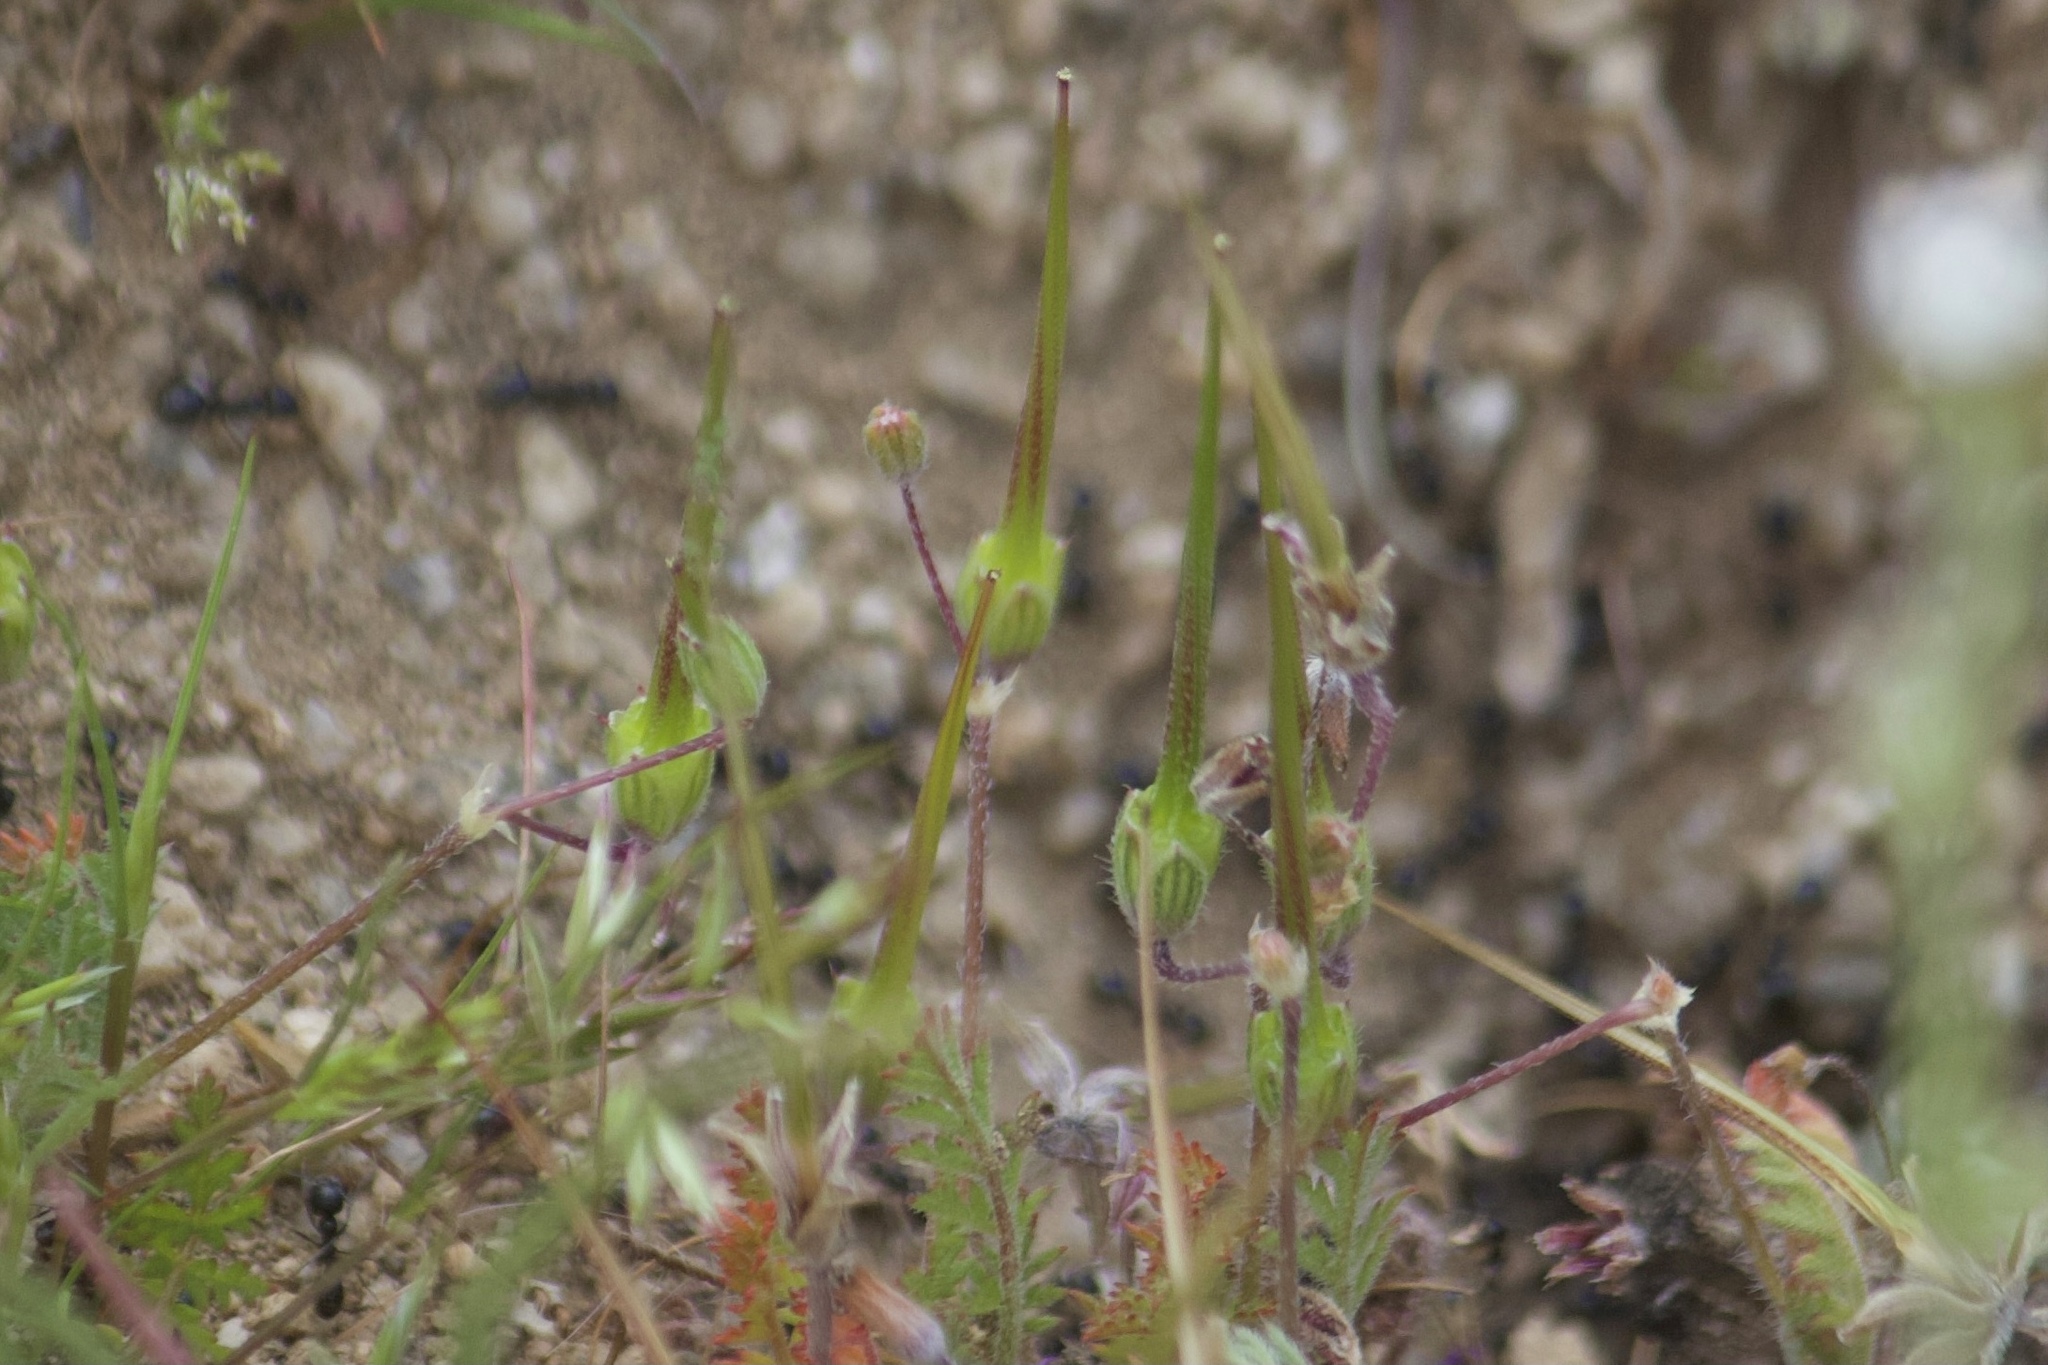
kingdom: Plantae
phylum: Tracheophyta
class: Magnoliopsida
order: Geraniales
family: Geraniaceae
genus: Erodium
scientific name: Erodium cicutarium
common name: Common stork's-bill
